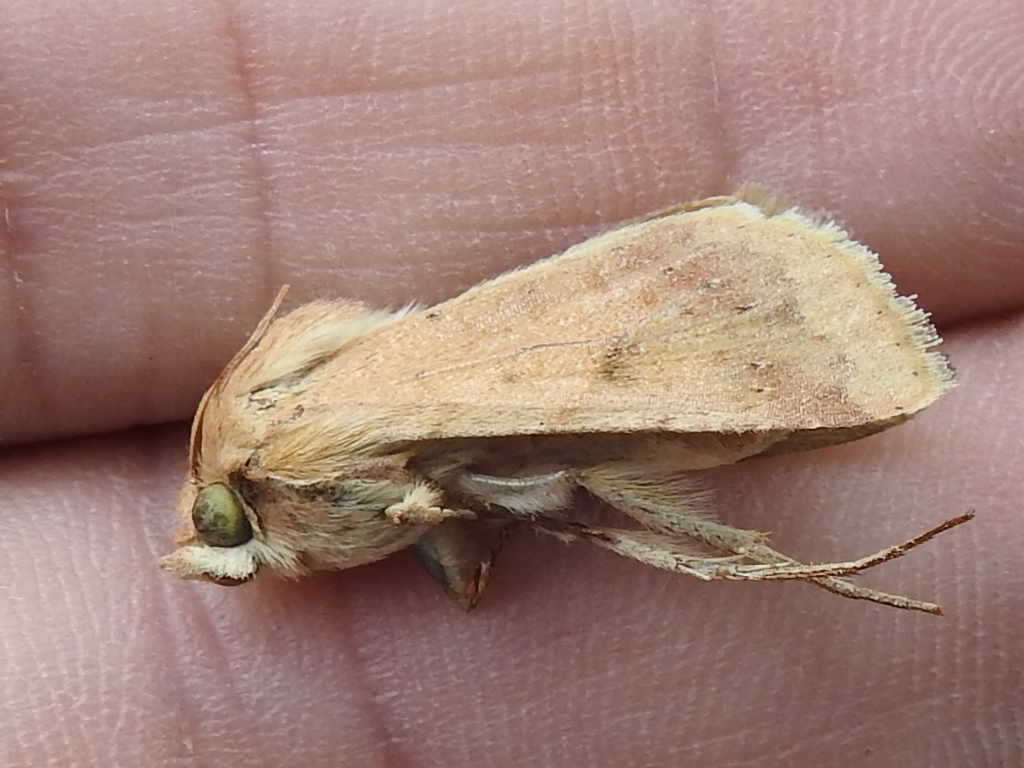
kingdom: Animalia
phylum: Arthropoda
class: Insecta
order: Lepidoptera
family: Noctuidae
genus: Helicoverpa
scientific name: Helicoverpa zea
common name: Bollworm
